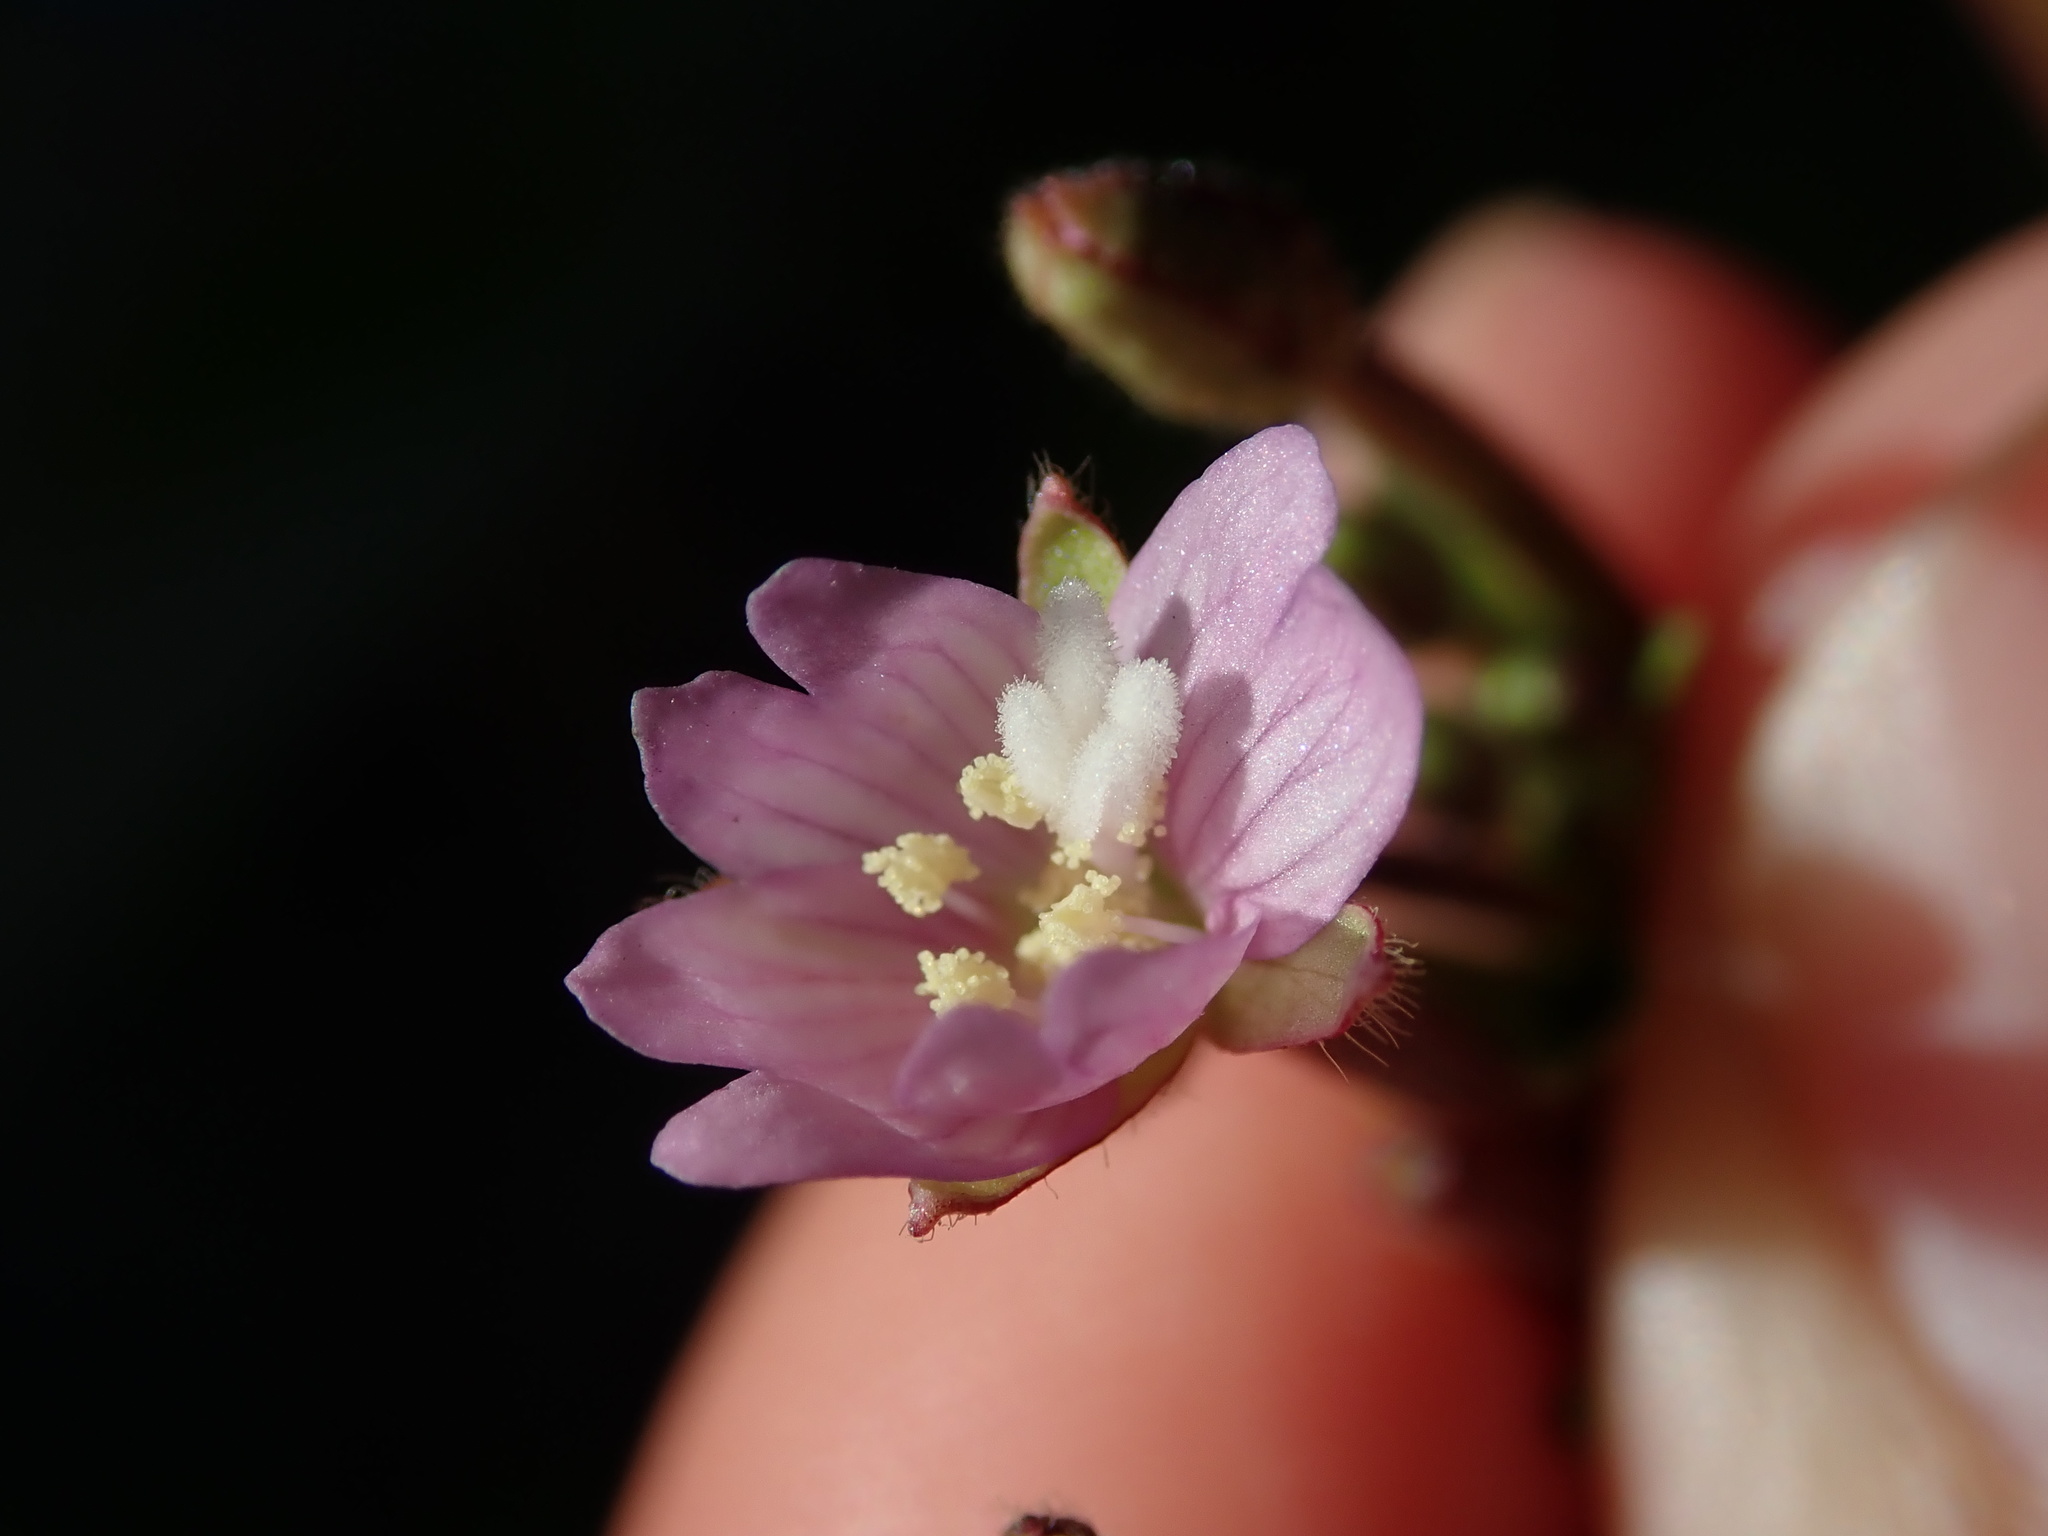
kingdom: Plantae
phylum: Tracheophyta
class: Magnoliopsida
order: Myrtales
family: Onagraceae
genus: Epilobium
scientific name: Epilobium parviflorum
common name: Hoary willowherb
